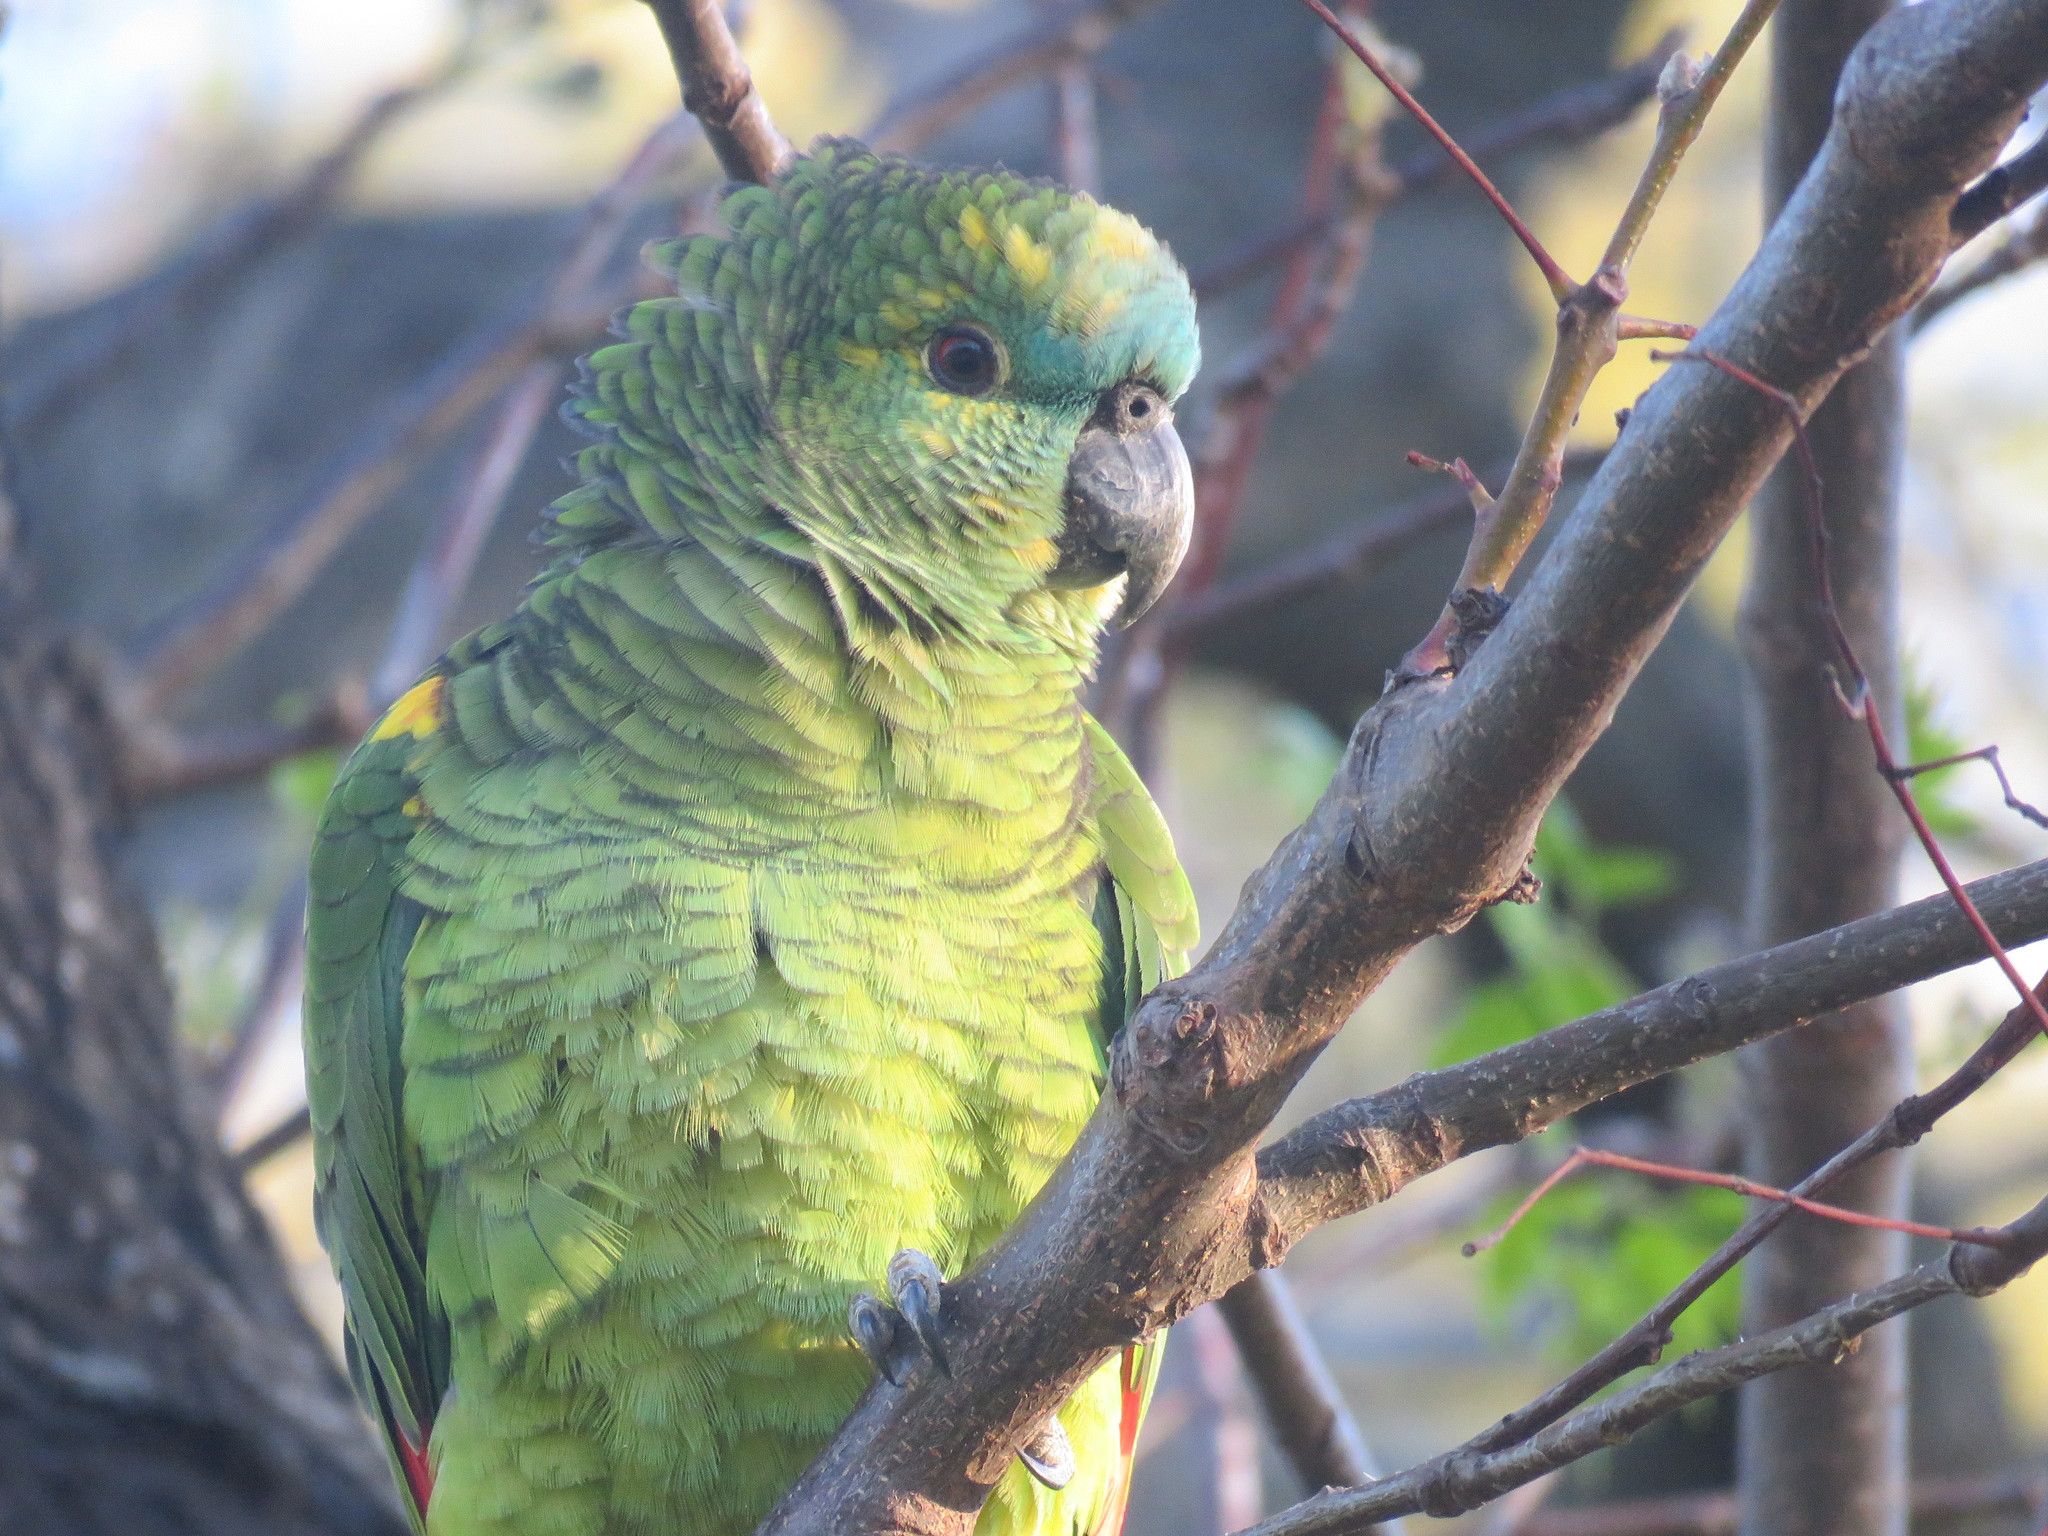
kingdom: Animalia
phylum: Chordata
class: Aves
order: Psittaciformes
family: Psittacidae
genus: Amazona
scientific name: Amazona aestiva
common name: Turquoise-fronted amazon
